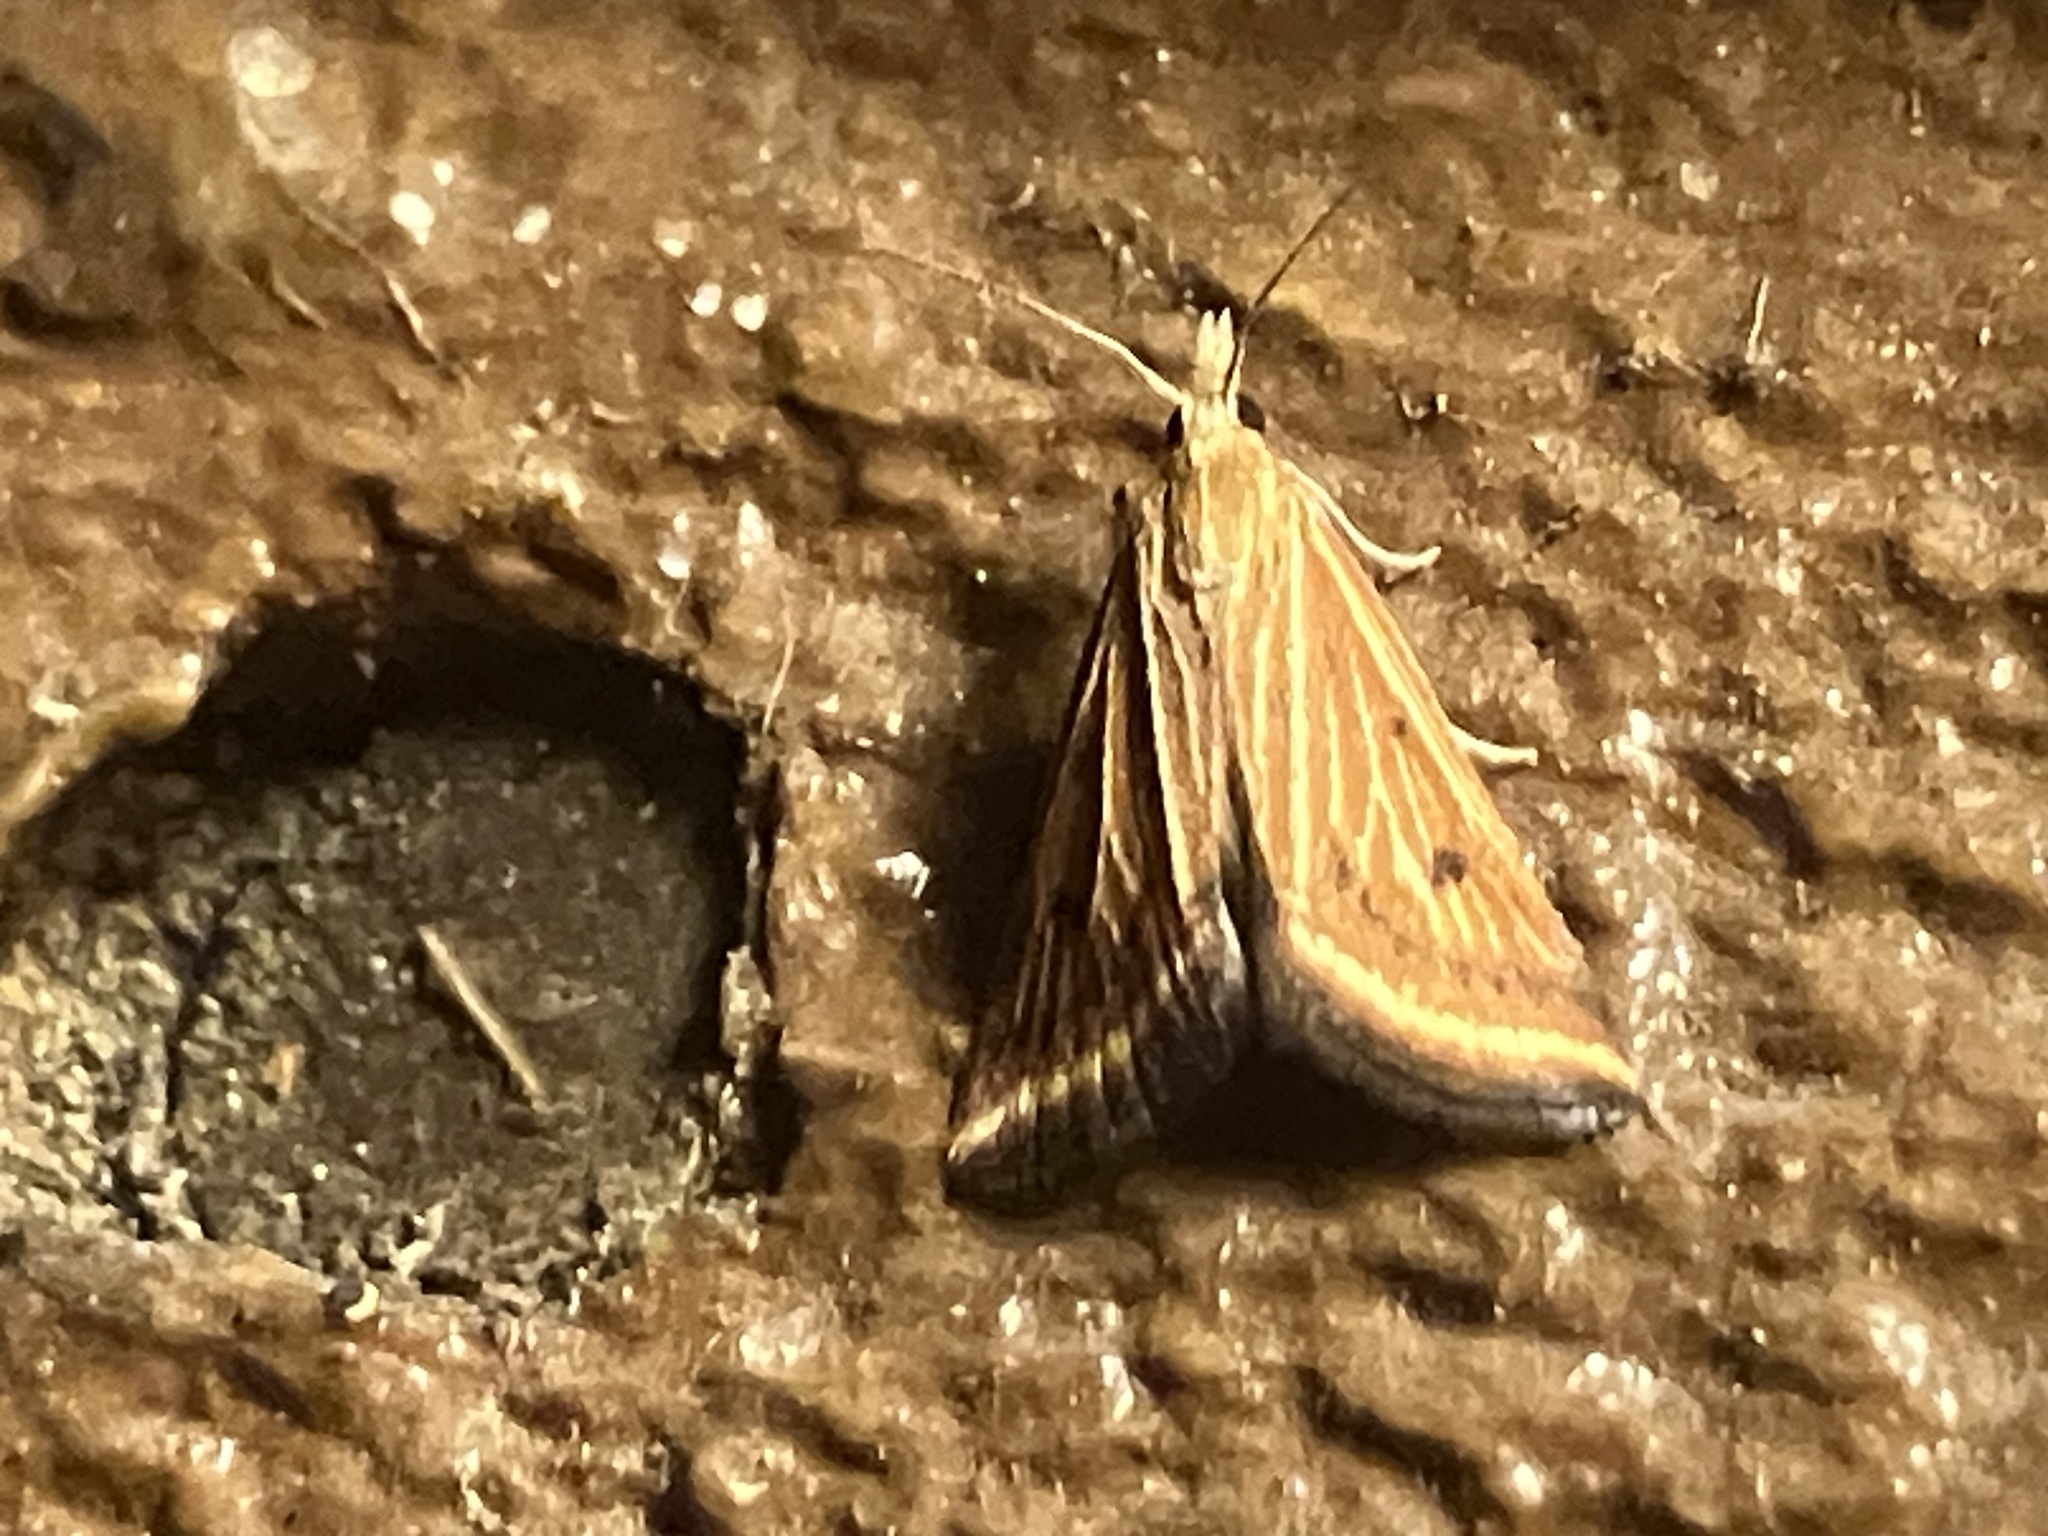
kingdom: Animalia
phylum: Arthropoda
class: Insecta
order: Lepidoptera
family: Crambidae
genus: Microtheoris
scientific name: Microtheoris ophionalis
